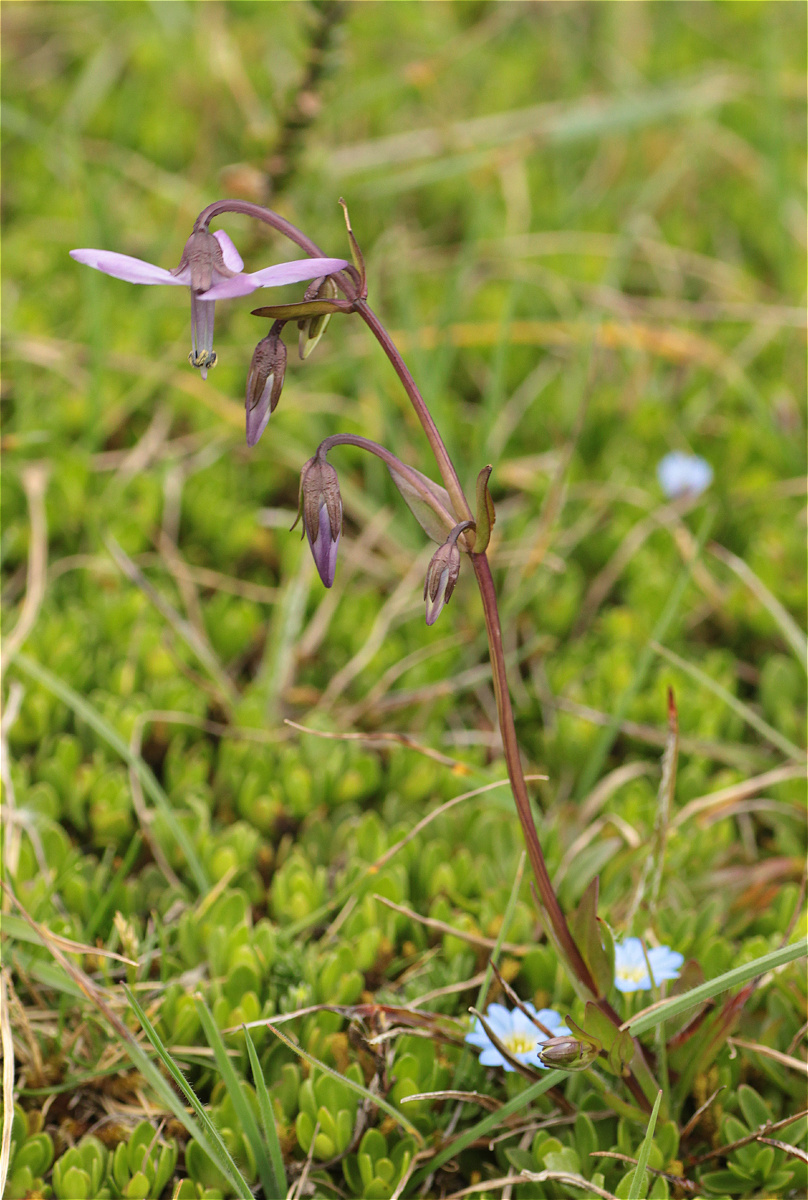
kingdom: Plantae
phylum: Tracheophyta
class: Magnoliopsida
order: Gentianales
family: Gentianaceae
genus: Gentianella
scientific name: Gentianella rapunculoides
